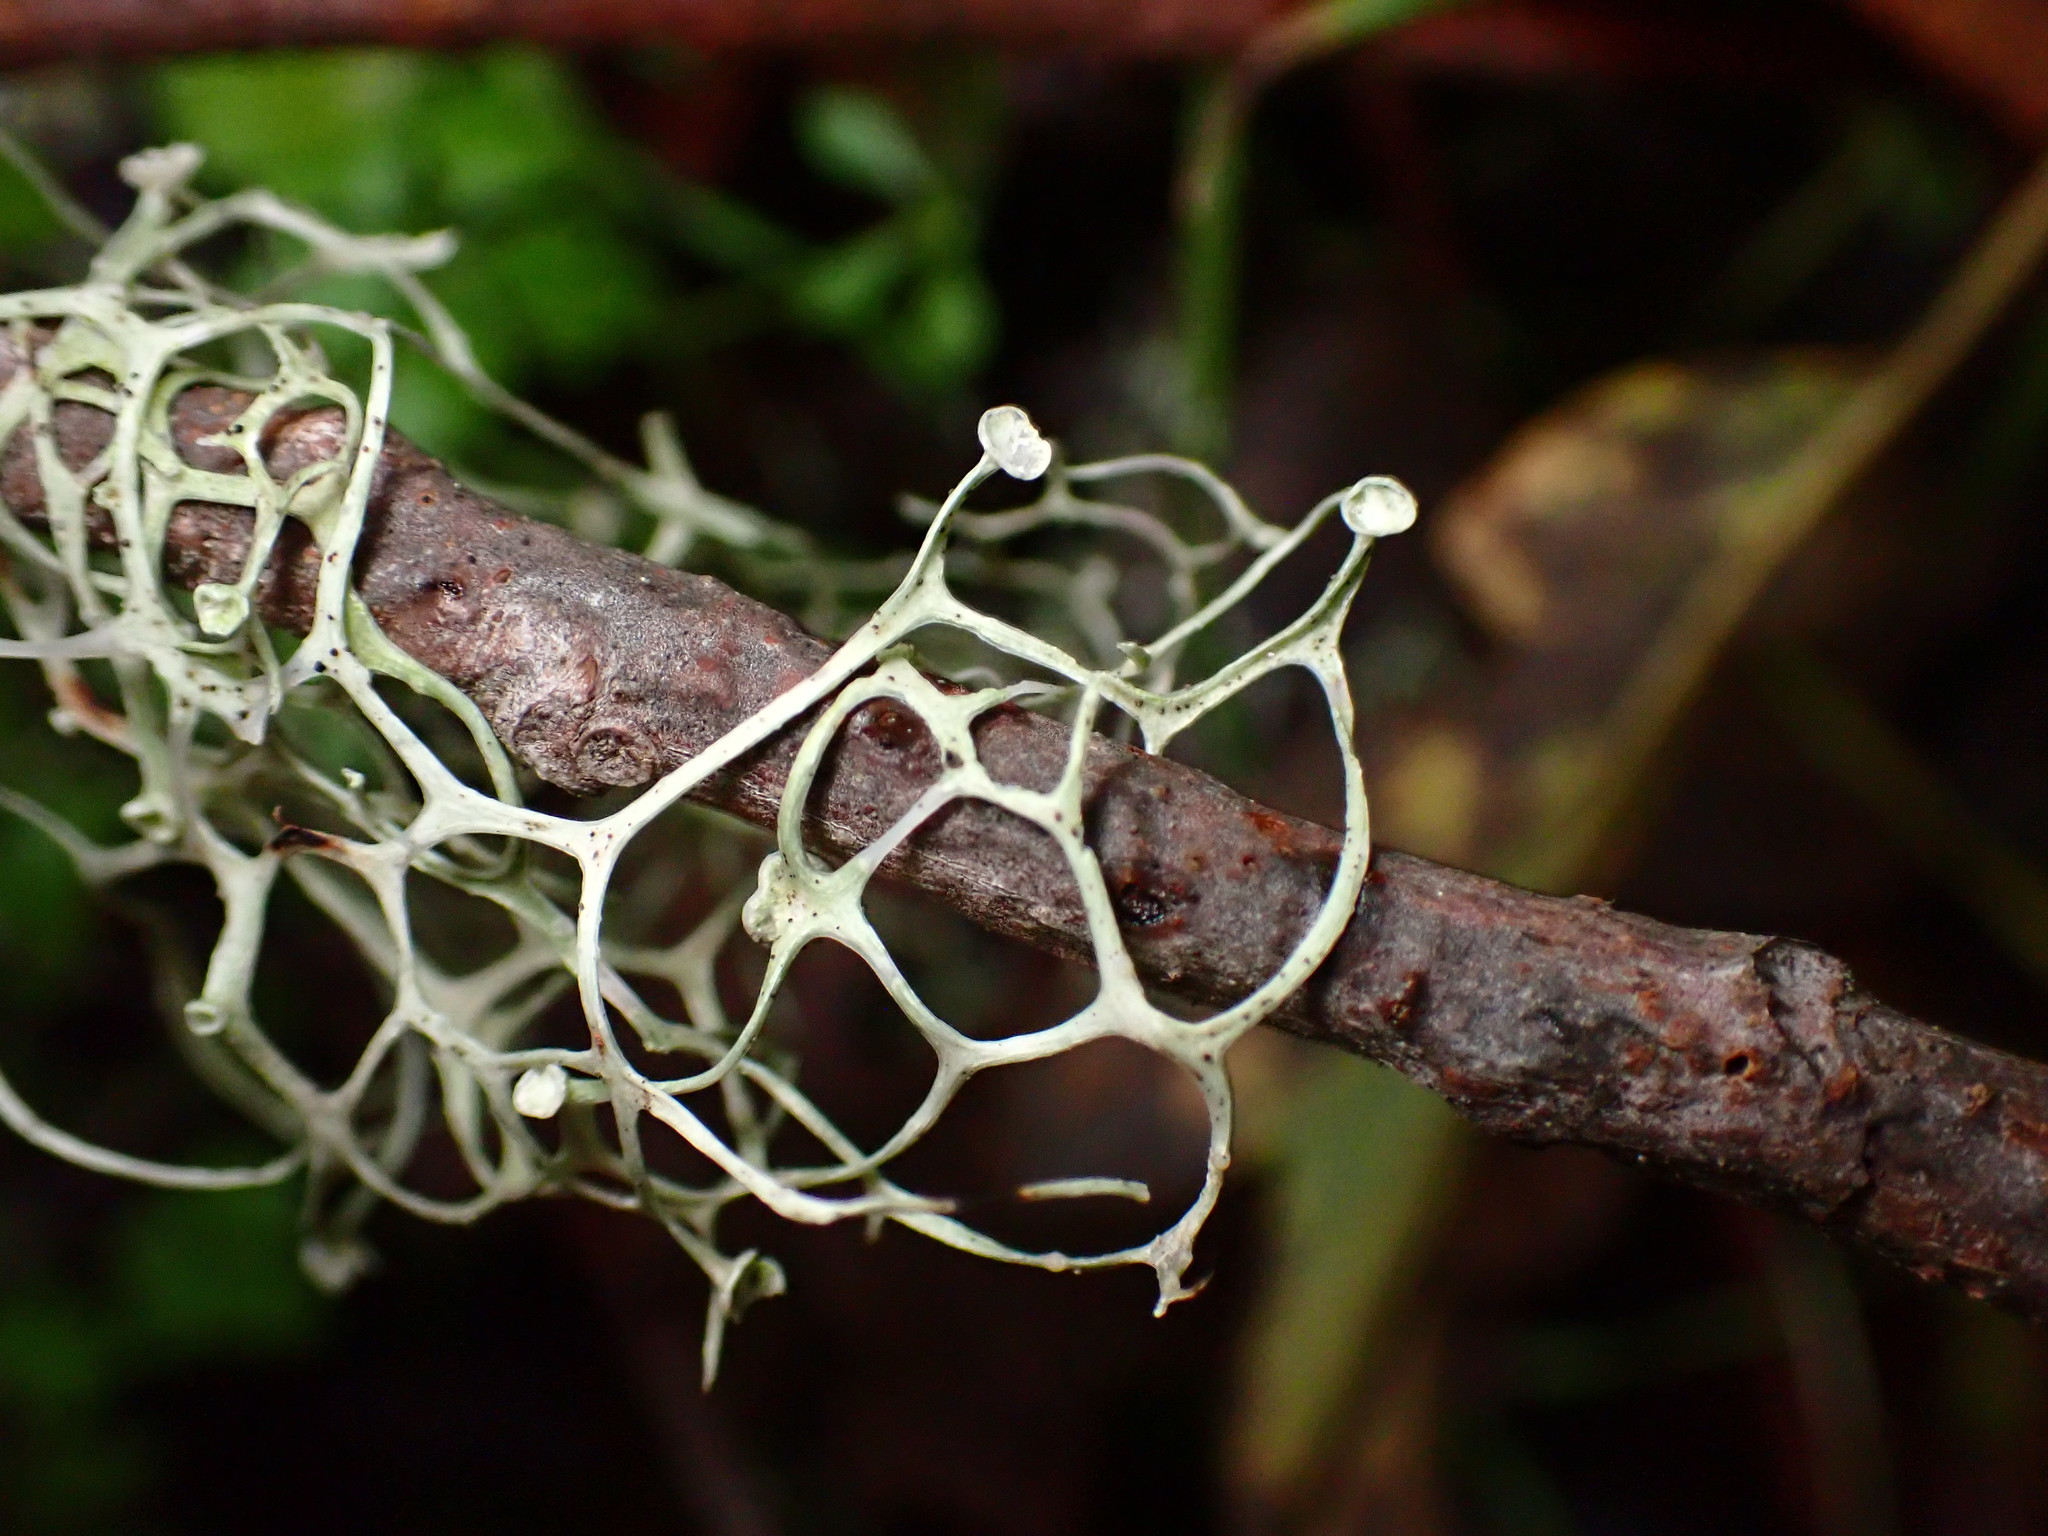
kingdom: Fungi
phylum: Ascomycota
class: Lecanoromycetes
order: Lecanorales
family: Ramalinaceae
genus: Ramalina
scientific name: Ramalina menziesii
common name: Lace lichen
